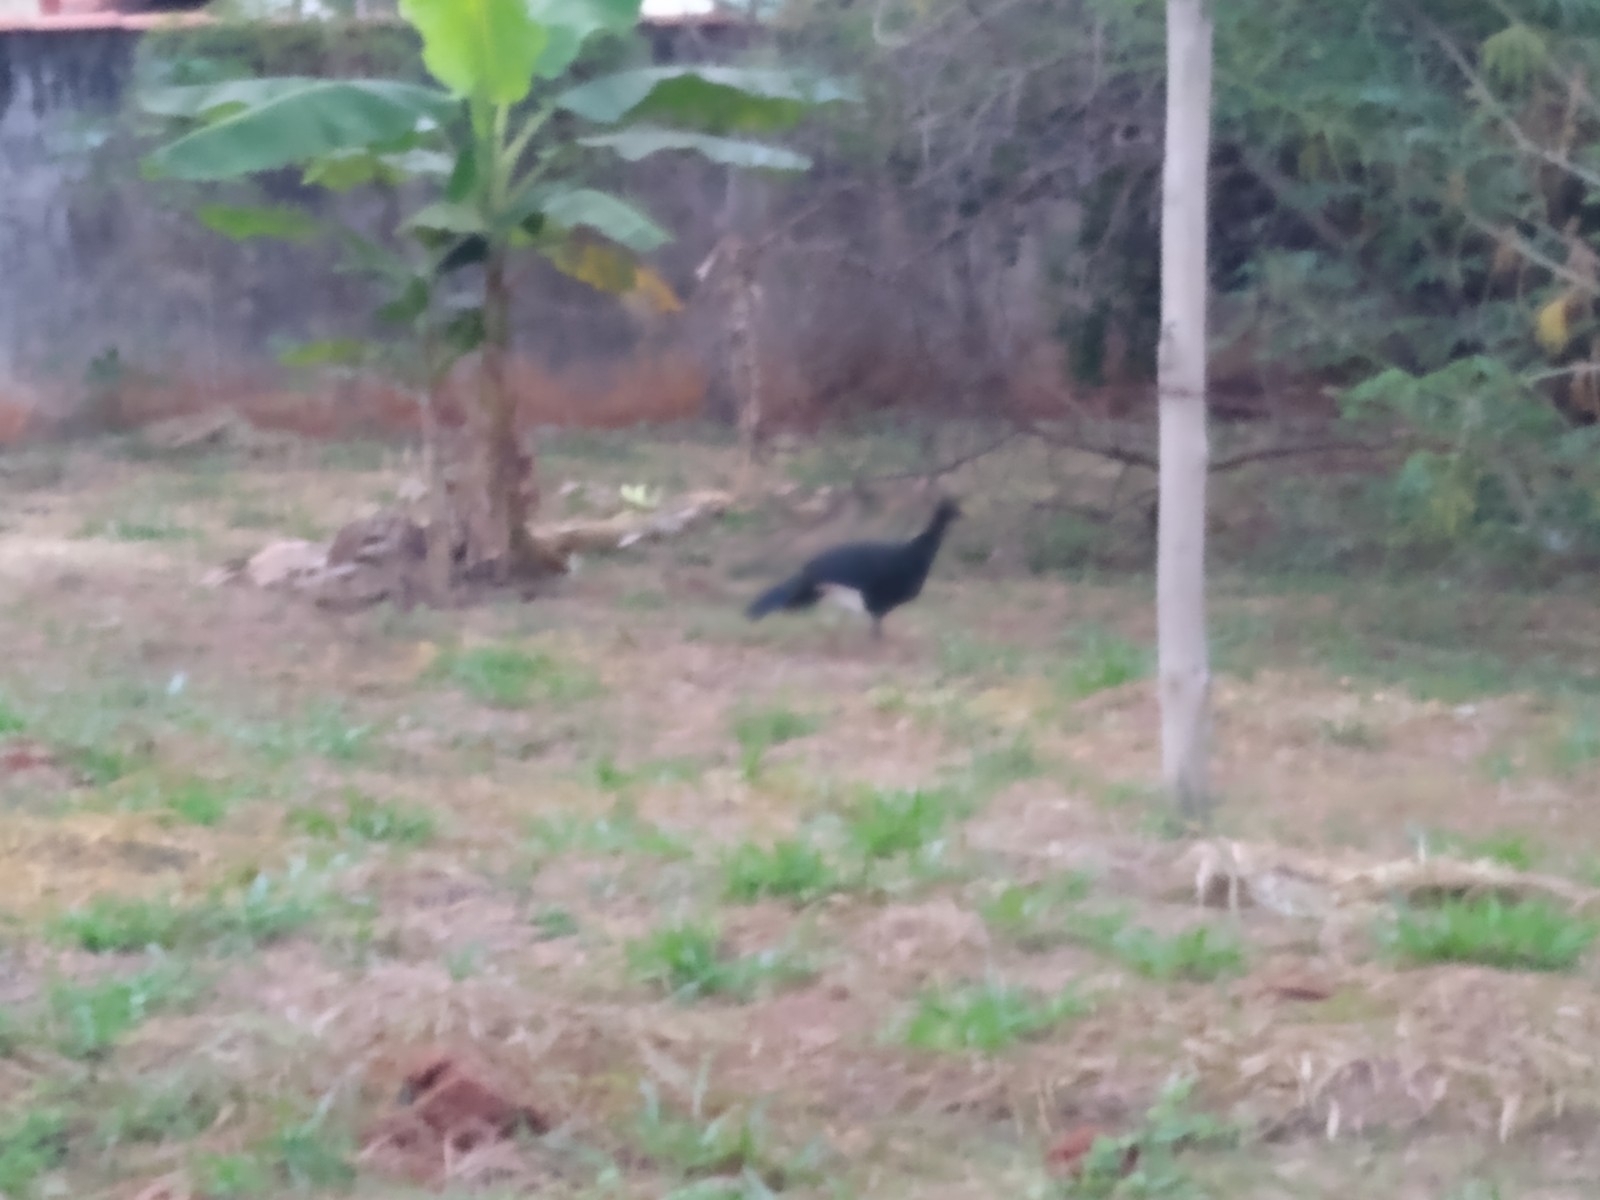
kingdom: Animalia
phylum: Chordata
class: Aves
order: Galliformes
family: Cracidae
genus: Crax
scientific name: Crax fasciolata
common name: Bare-faced curassow
